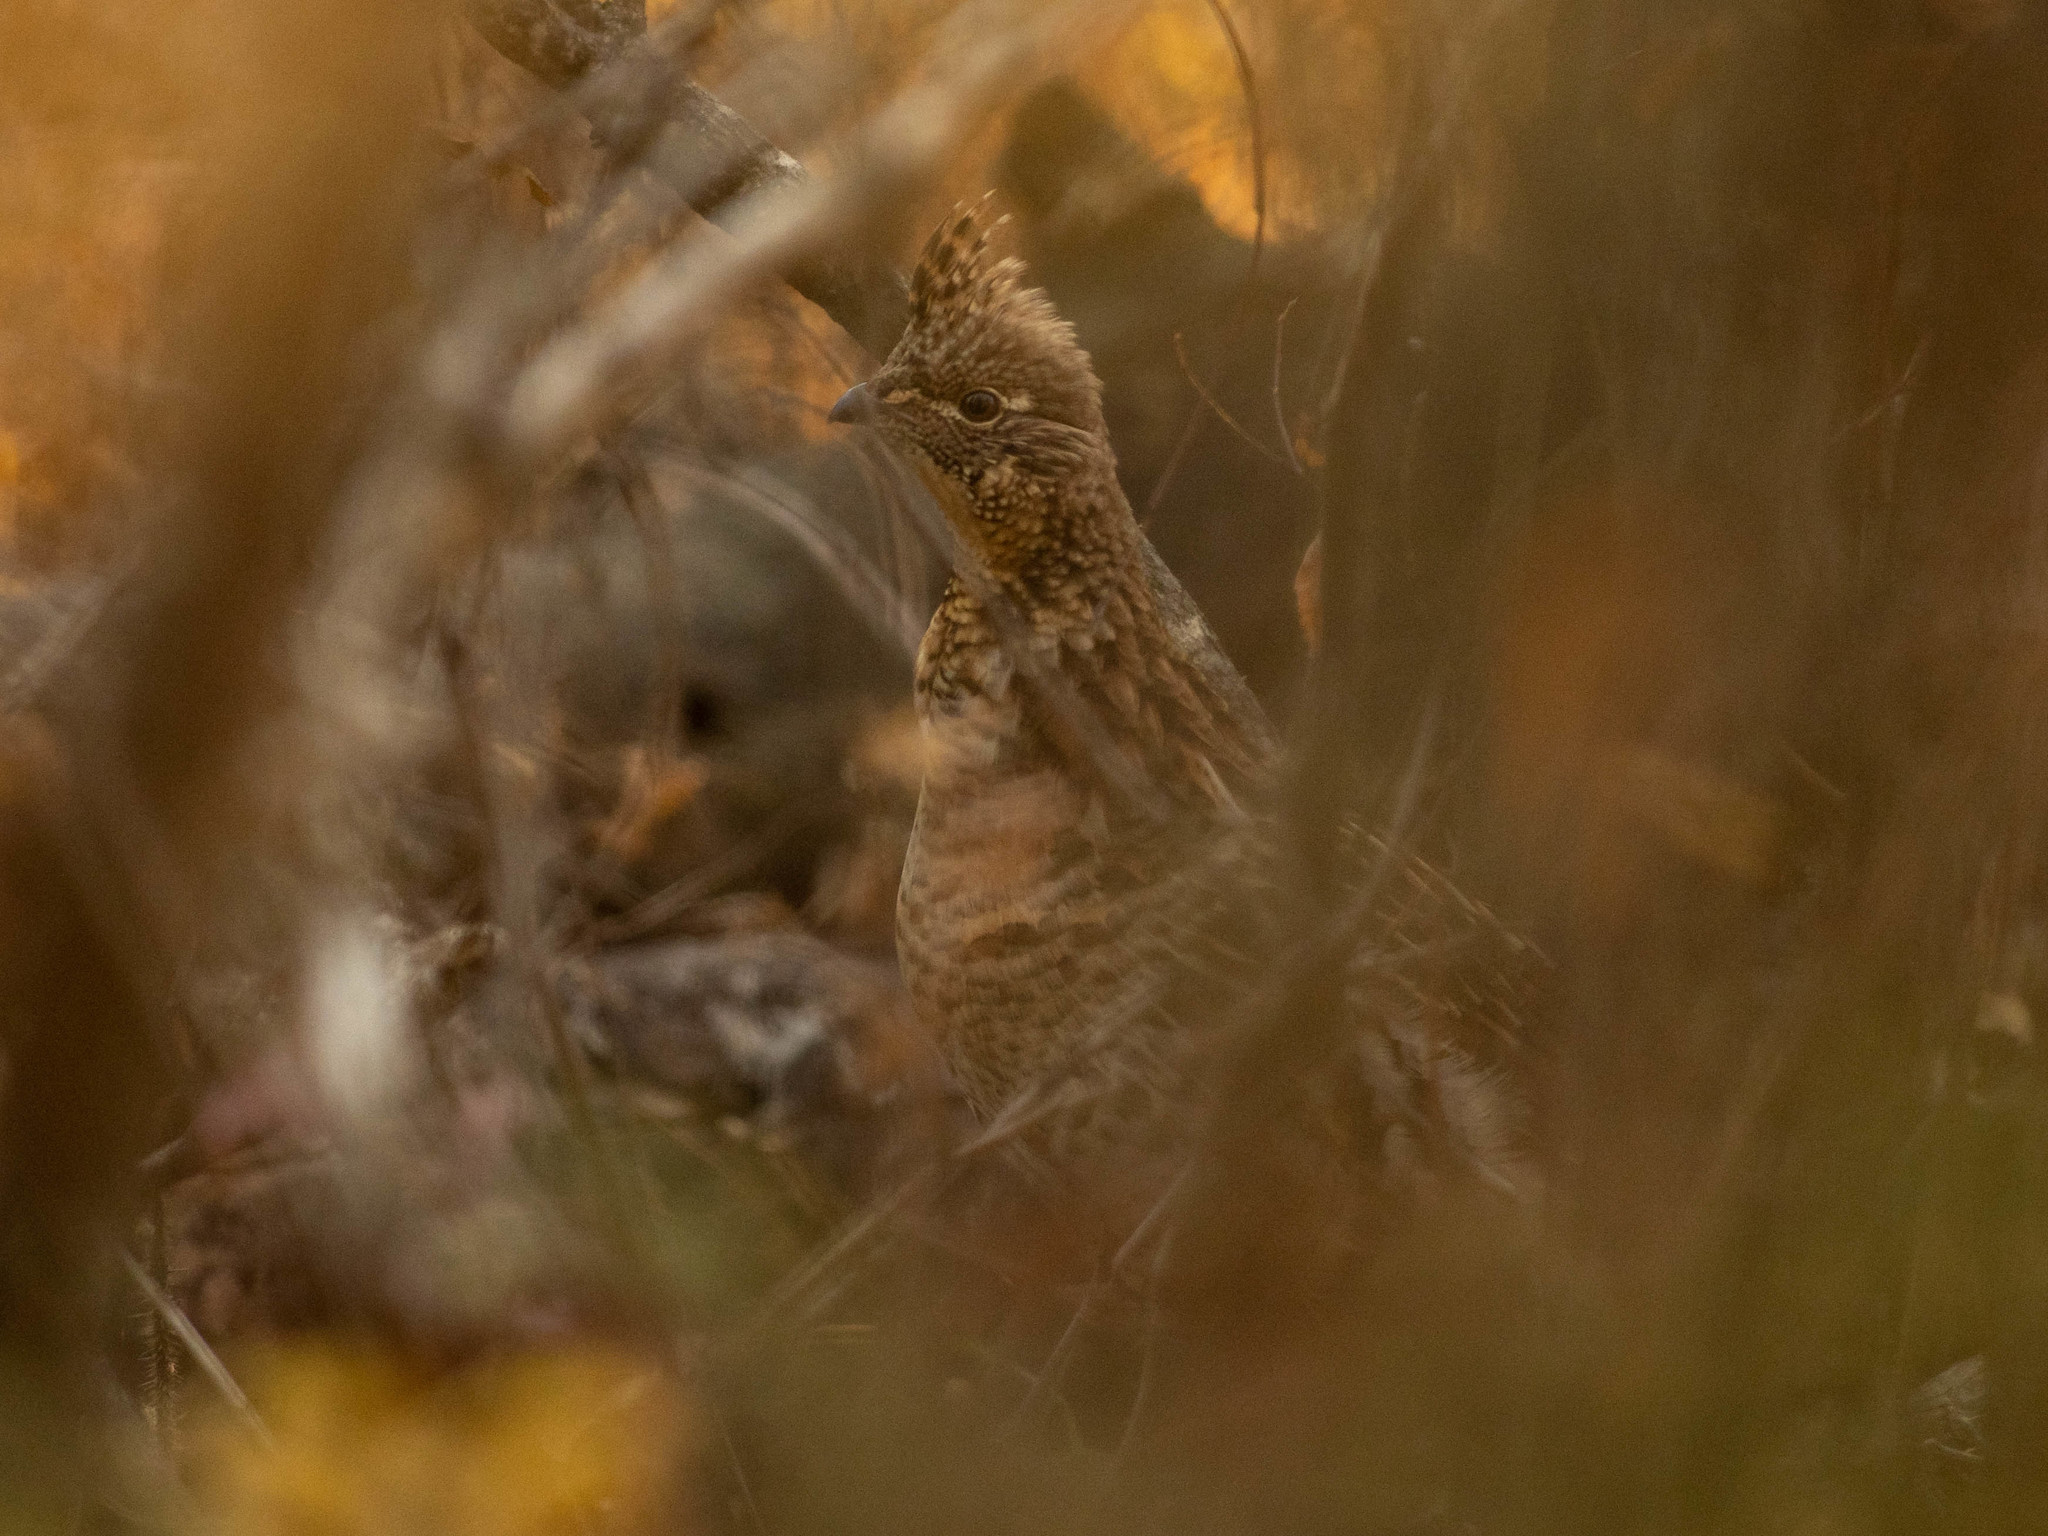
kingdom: Animalia
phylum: Chordata
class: Aves
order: Galliformes
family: Phasianidae
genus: Bonasa
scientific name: Bonasa umbellus
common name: Ruffed grouse
